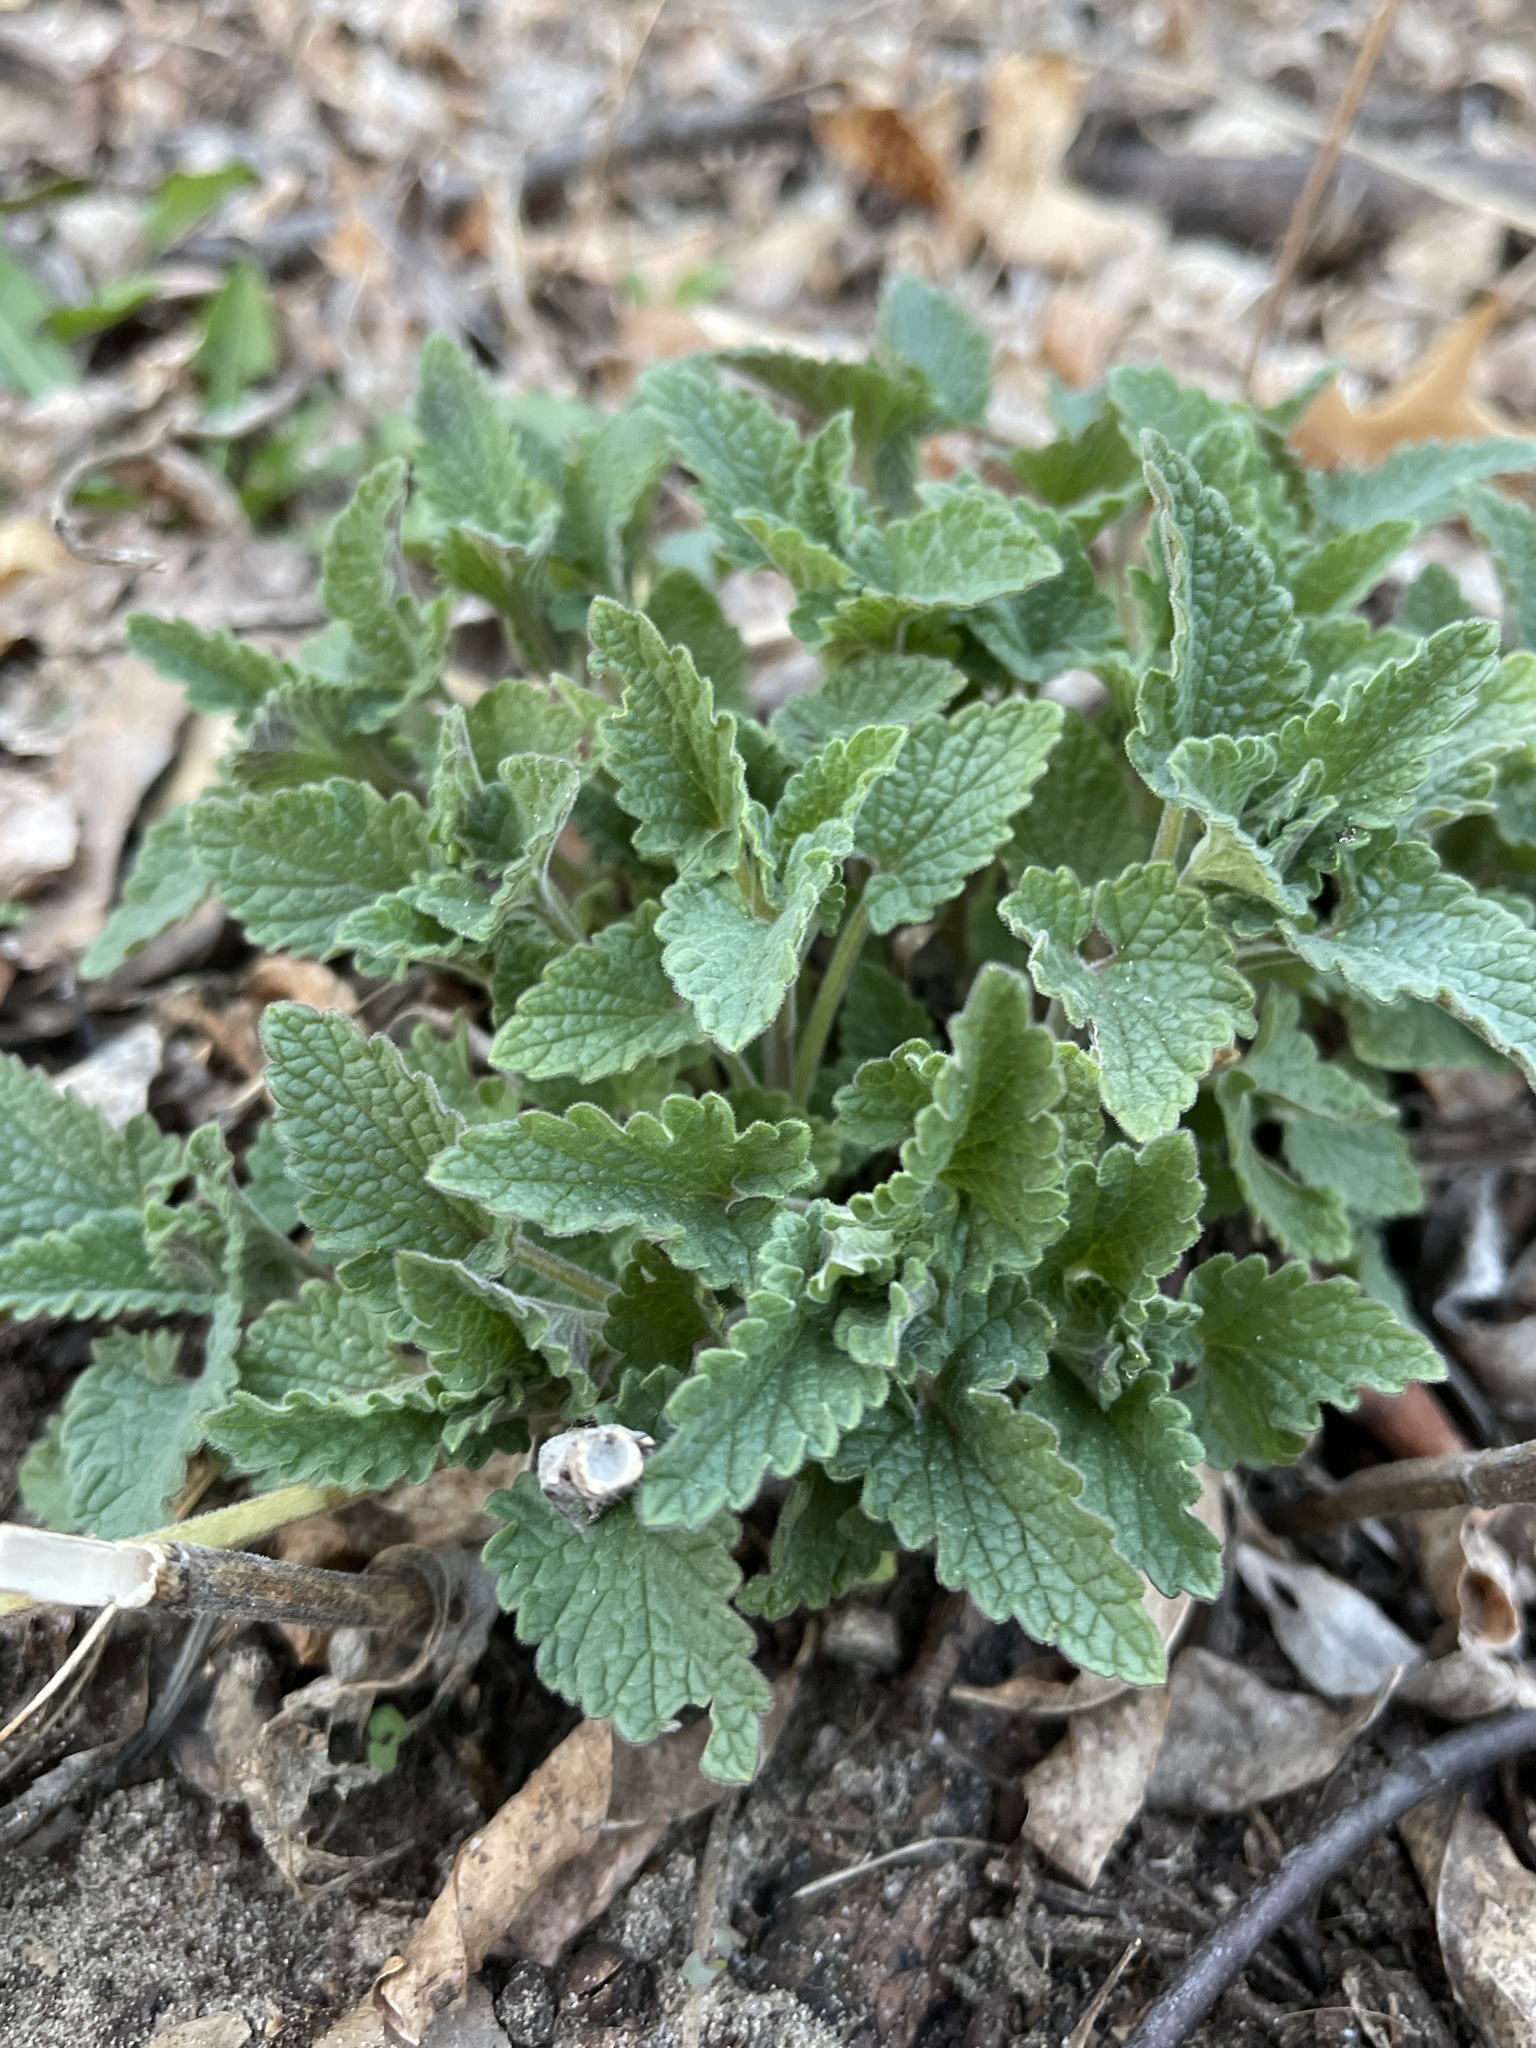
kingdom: Plantae
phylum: Tracheophyta
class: Magnoliopsida
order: Lamiales
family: Lamiaceae
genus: Nepeta
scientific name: Nepeta cataria
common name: Catnip
